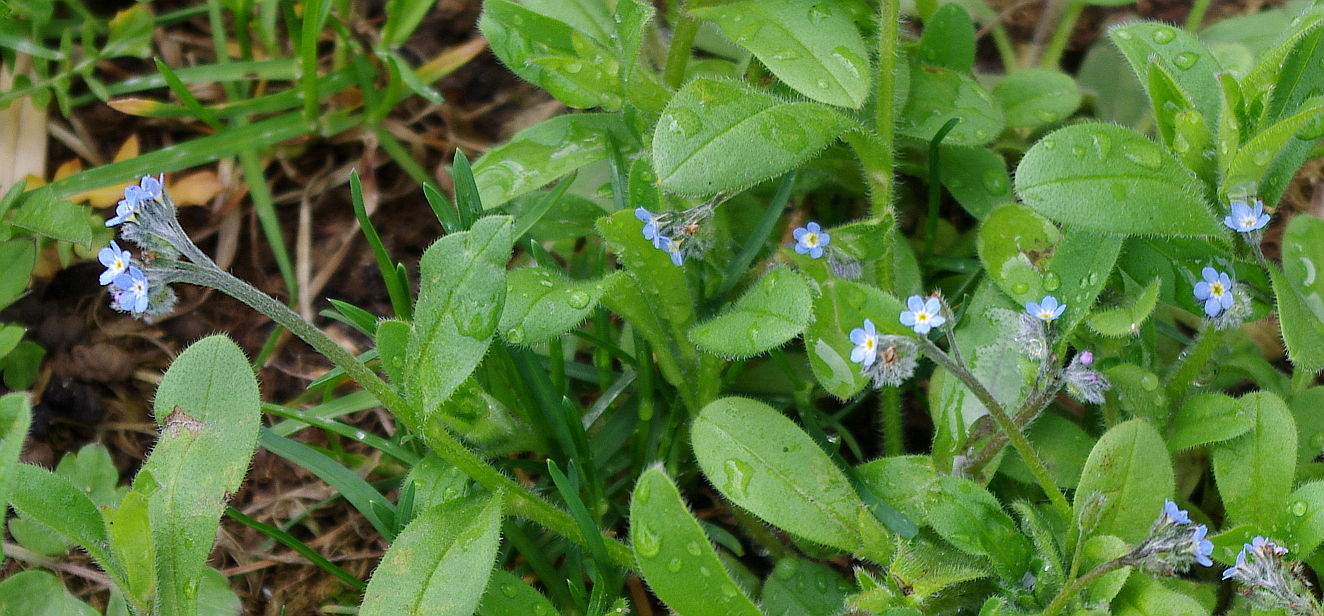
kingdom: Plantae
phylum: Tracheophyta
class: Magnoliopsida
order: Boraginales
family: Boraginaceae
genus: Myosotis
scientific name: Myosotis arvensis
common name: Field forget-me-not
